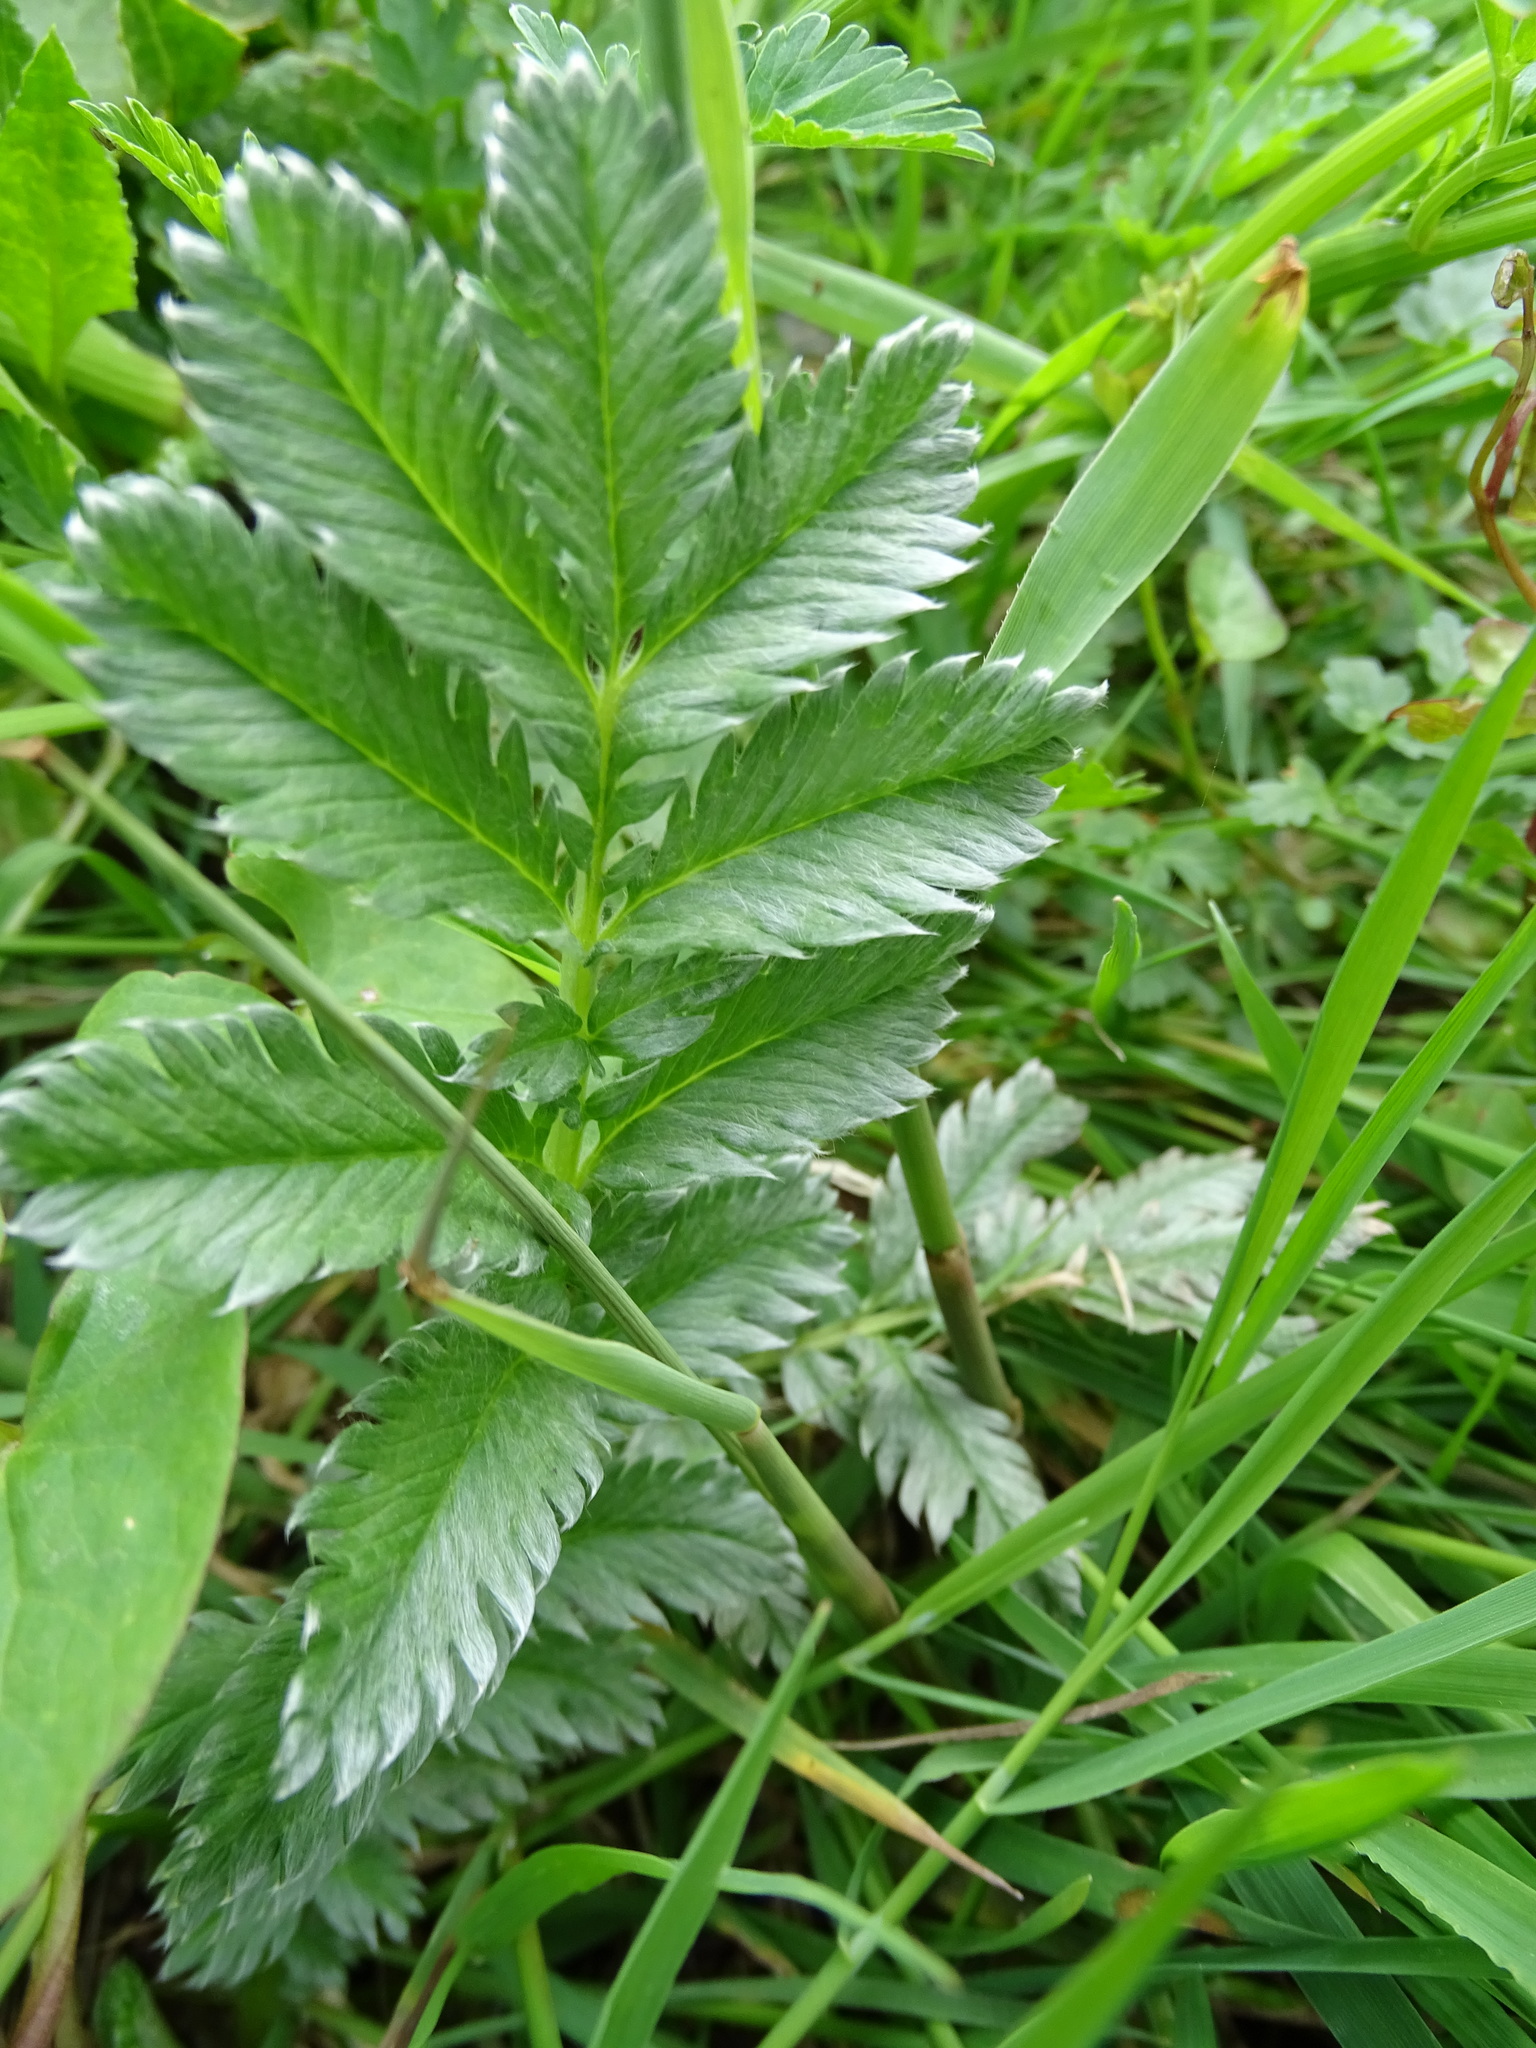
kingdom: Plantae
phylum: Tracheophyta
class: Magnoliopsida
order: Rosales
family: Rosaceae
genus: Argentina
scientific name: Argentina anserina
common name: Common silverweed
